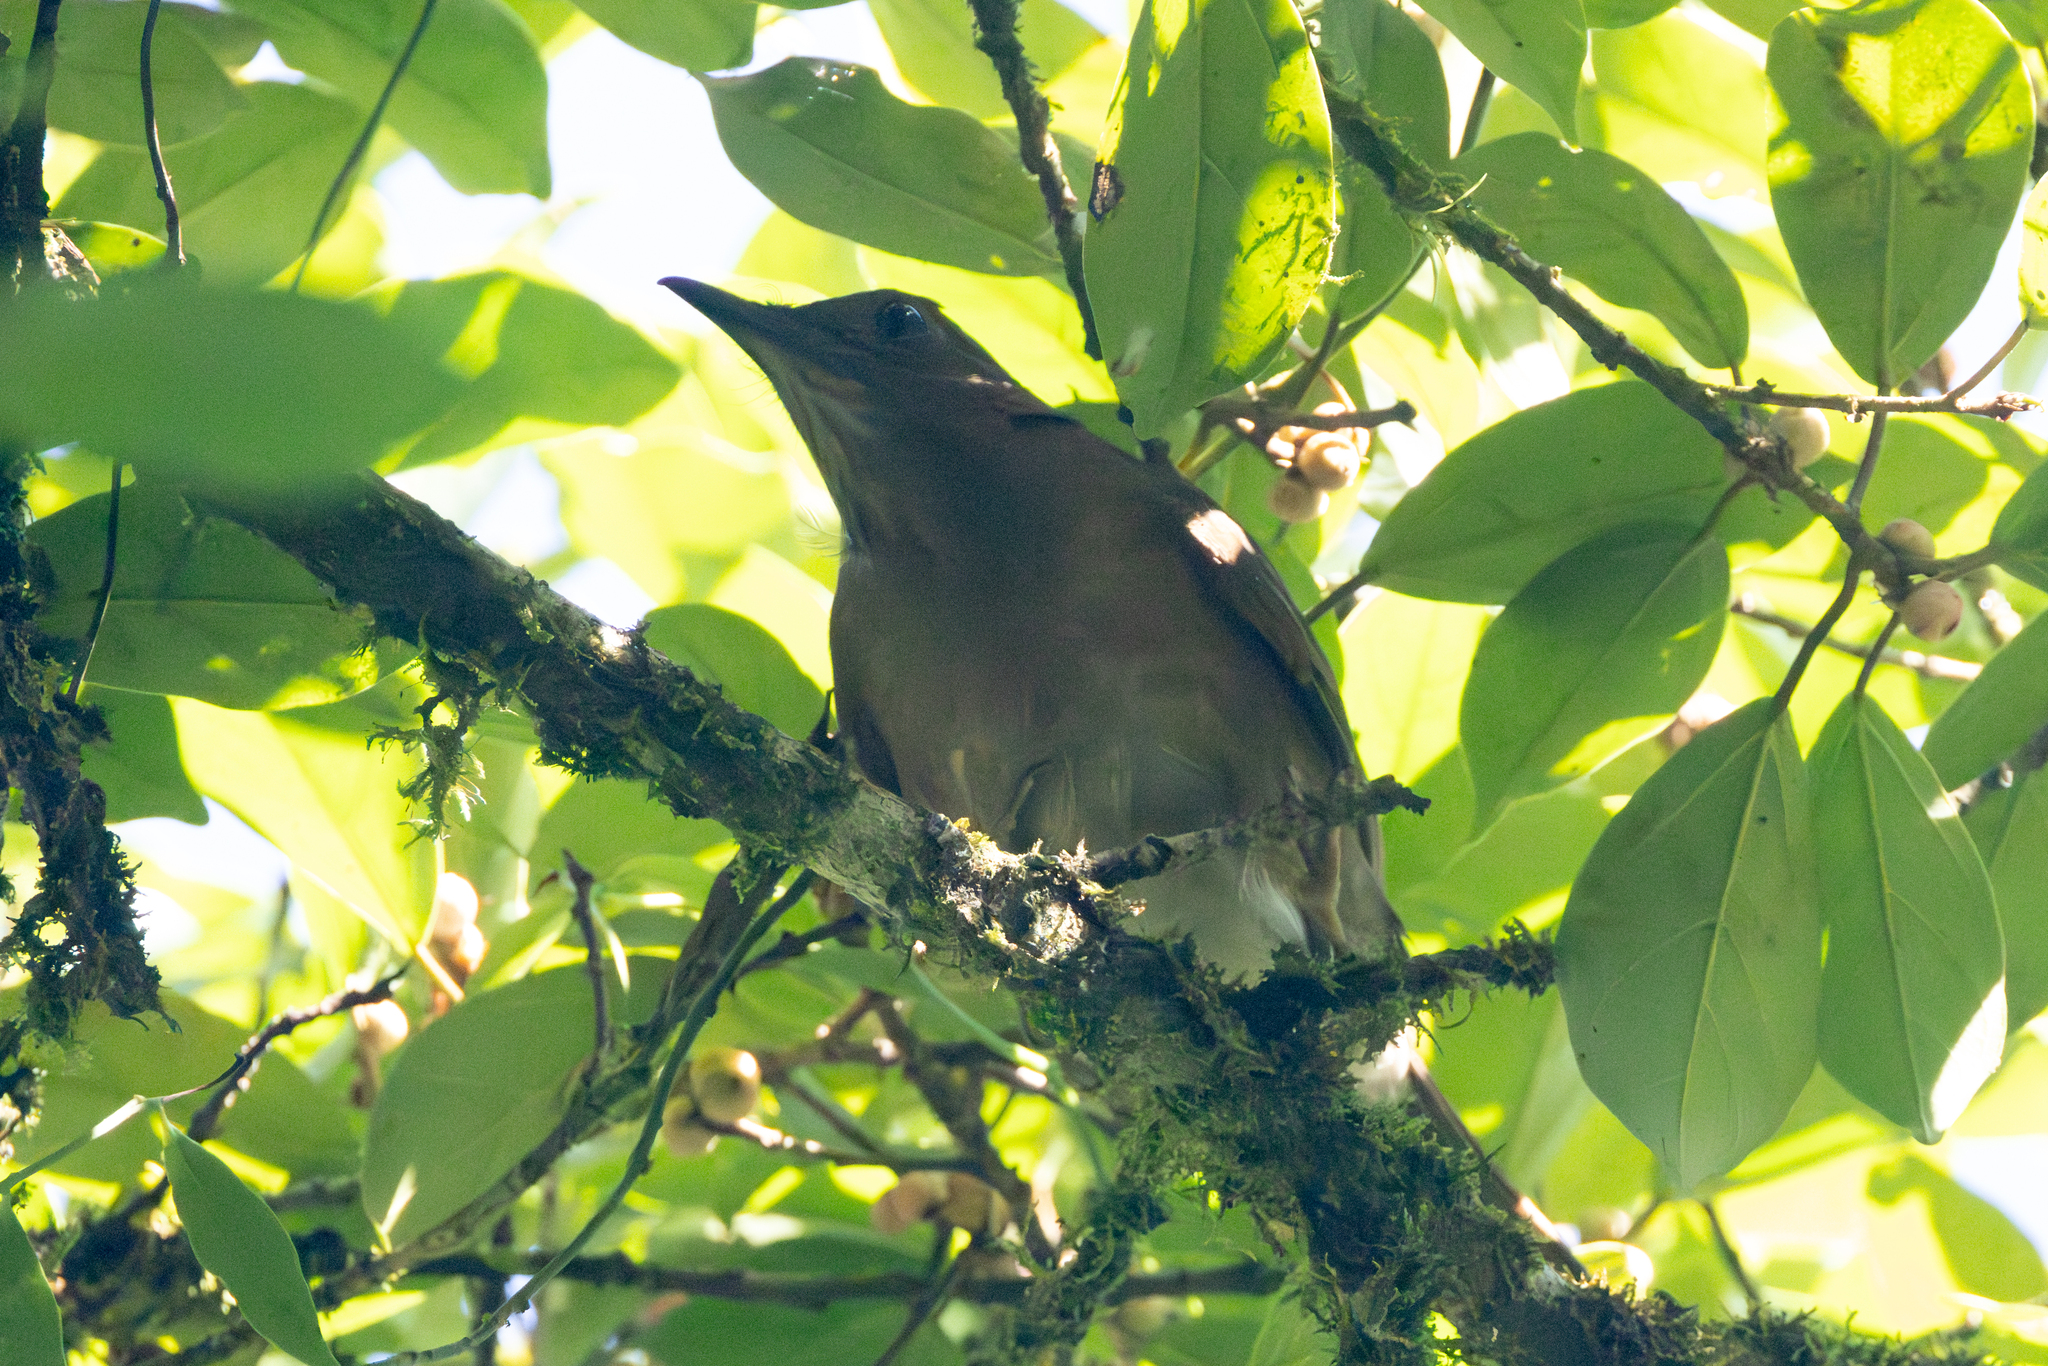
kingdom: Animalia
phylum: Chordata
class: Aves
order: Passeriformes
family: Turdidae
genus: Turdus
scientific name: Turdus obsoletus
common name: Pale-vented thrush
